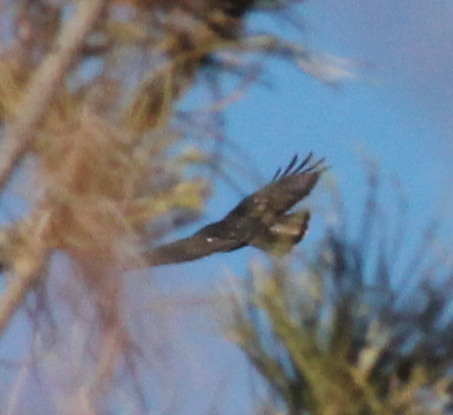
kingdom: Animalia
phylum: Chordata
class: Aves
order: Accipitriformes
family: Accipitridae
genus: Buteo
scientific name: Buteo jamaicensis
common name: Red-tailed hawk
